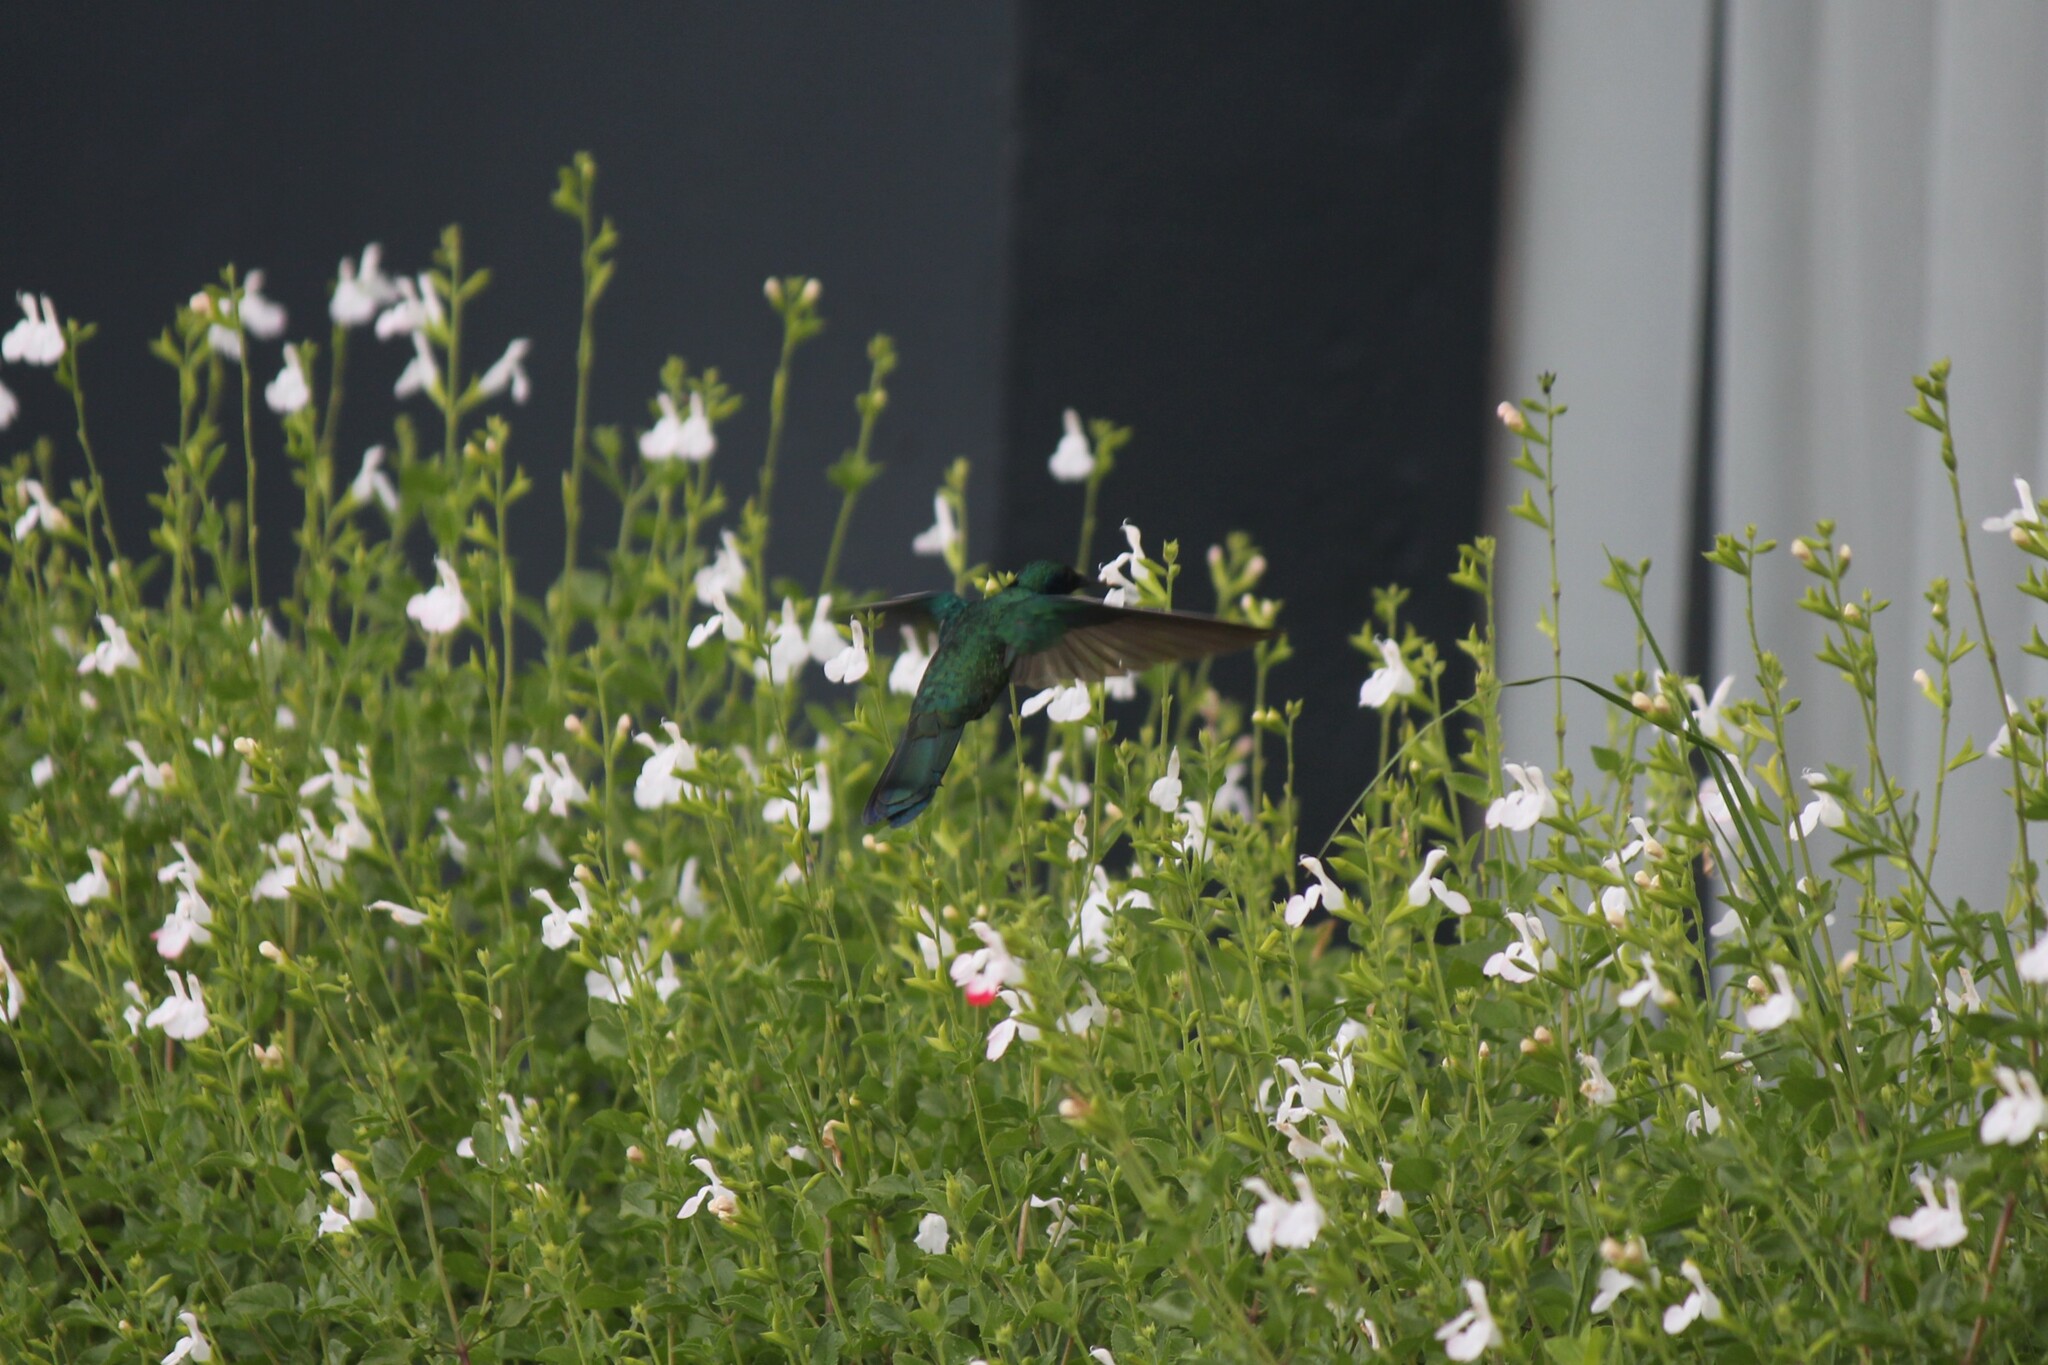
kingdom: Animalia
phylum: Chordata
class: Aves
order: Apodiformes
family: Trochilidae
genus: Colibri
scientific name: Colibri coruscans
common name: Sparkling violetear
